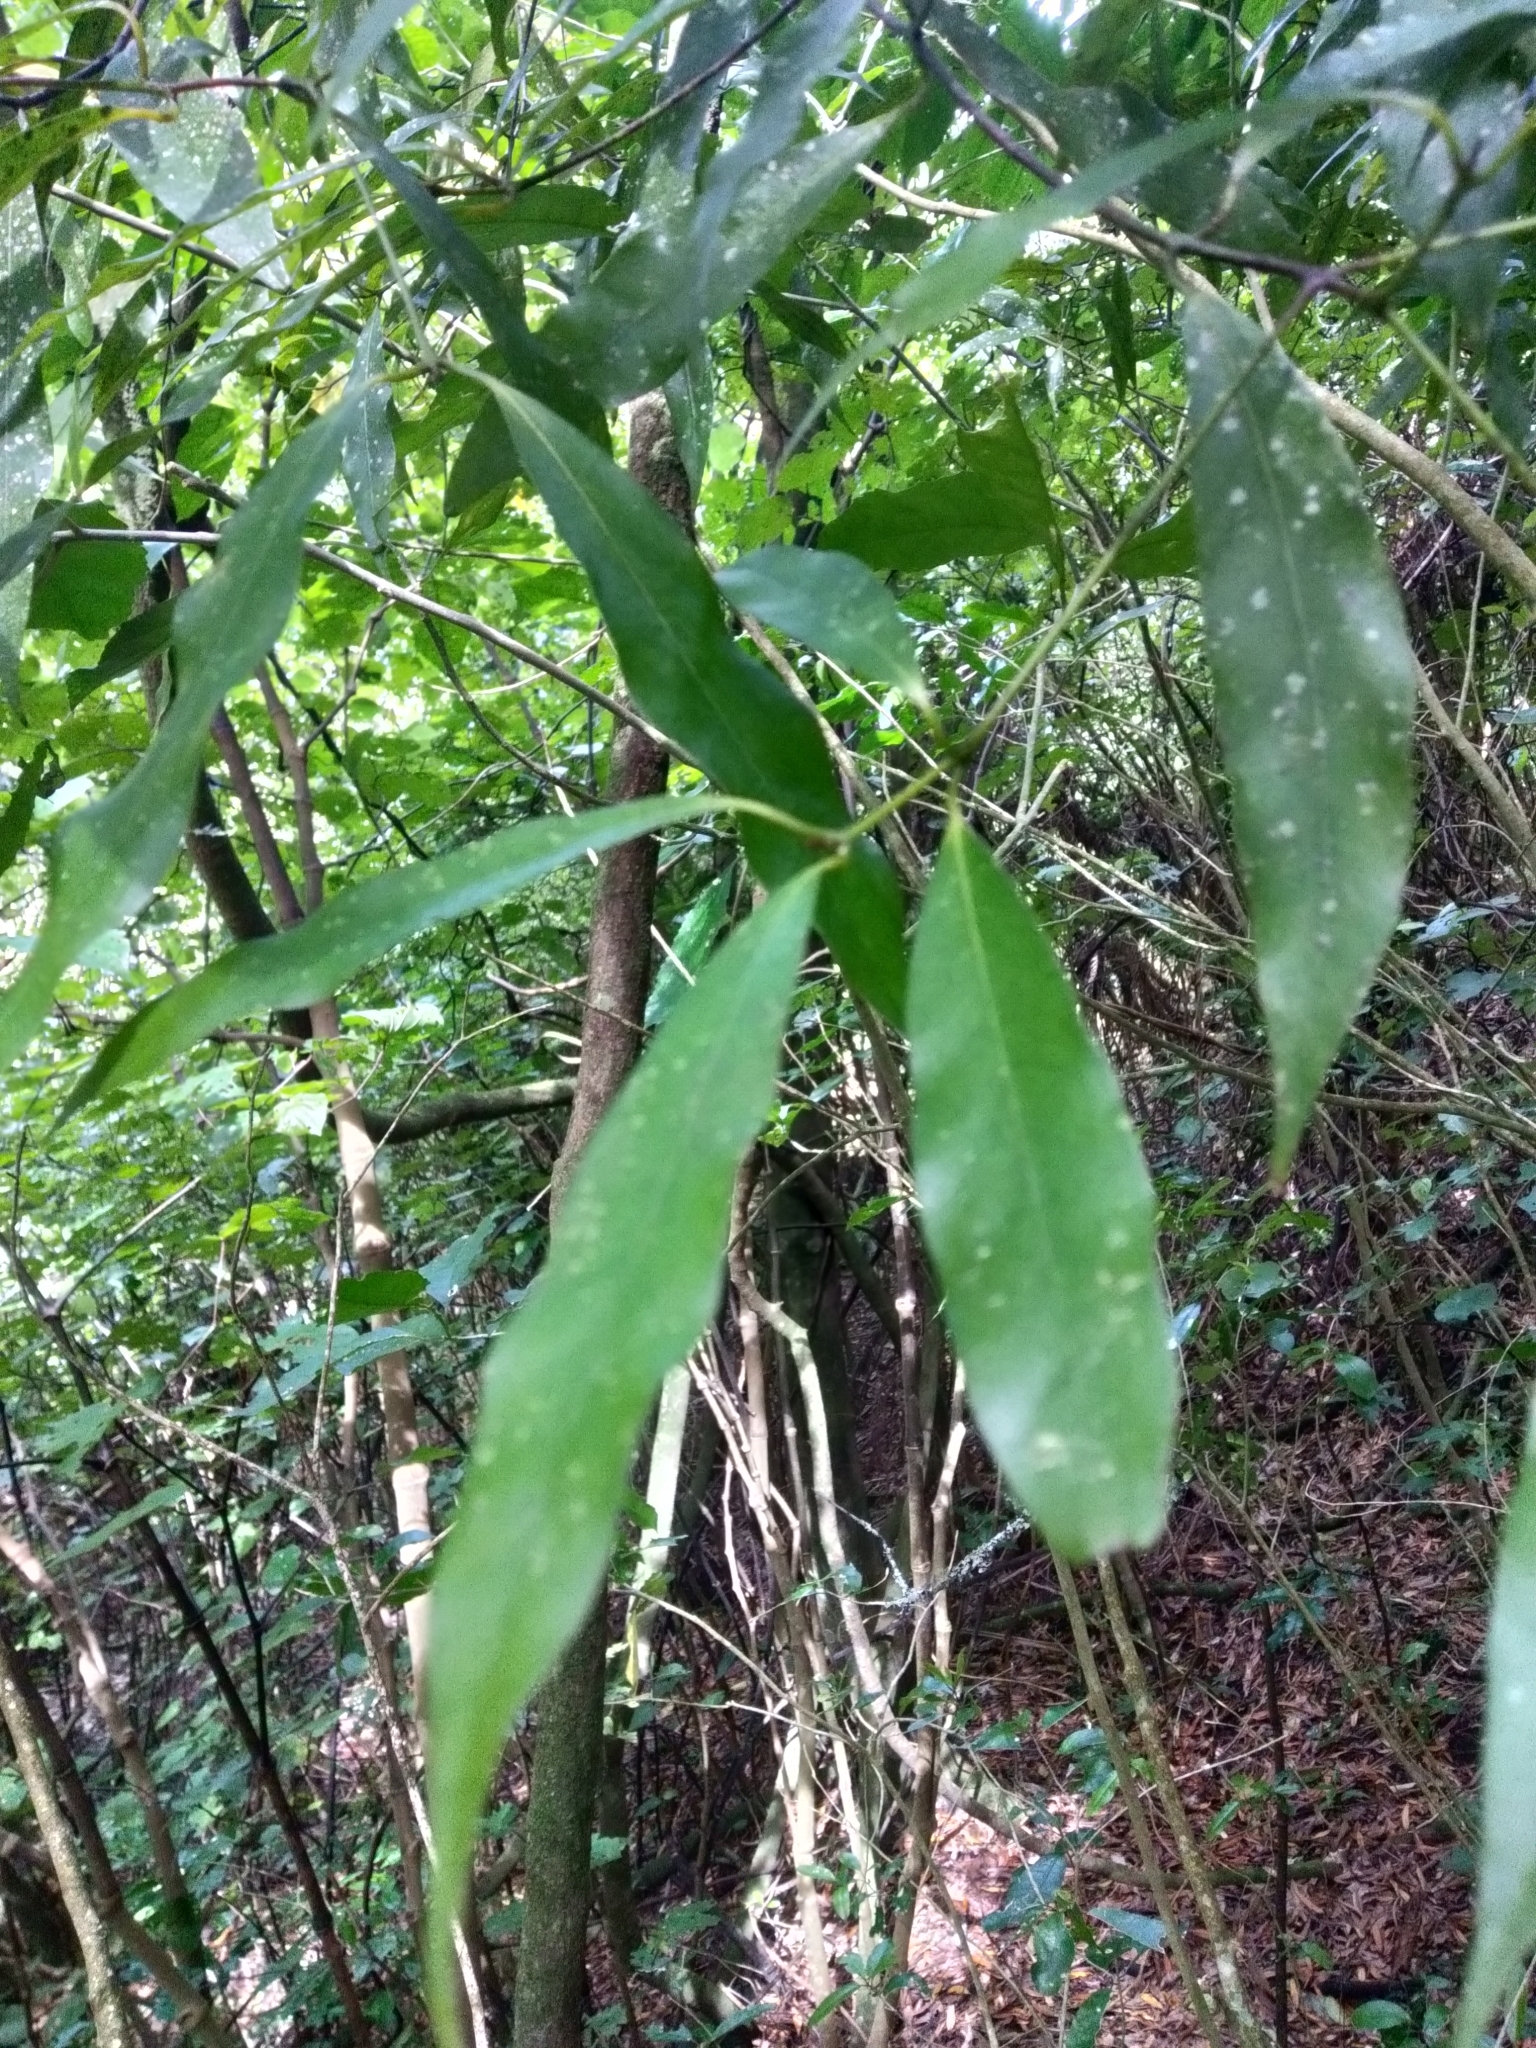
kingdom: Plantae
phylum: Tracheophyta
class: Magnoliopsida
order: Laurales
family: Lauraceae
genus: Beilschmiedia
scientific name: Beilschmiedia tawa
